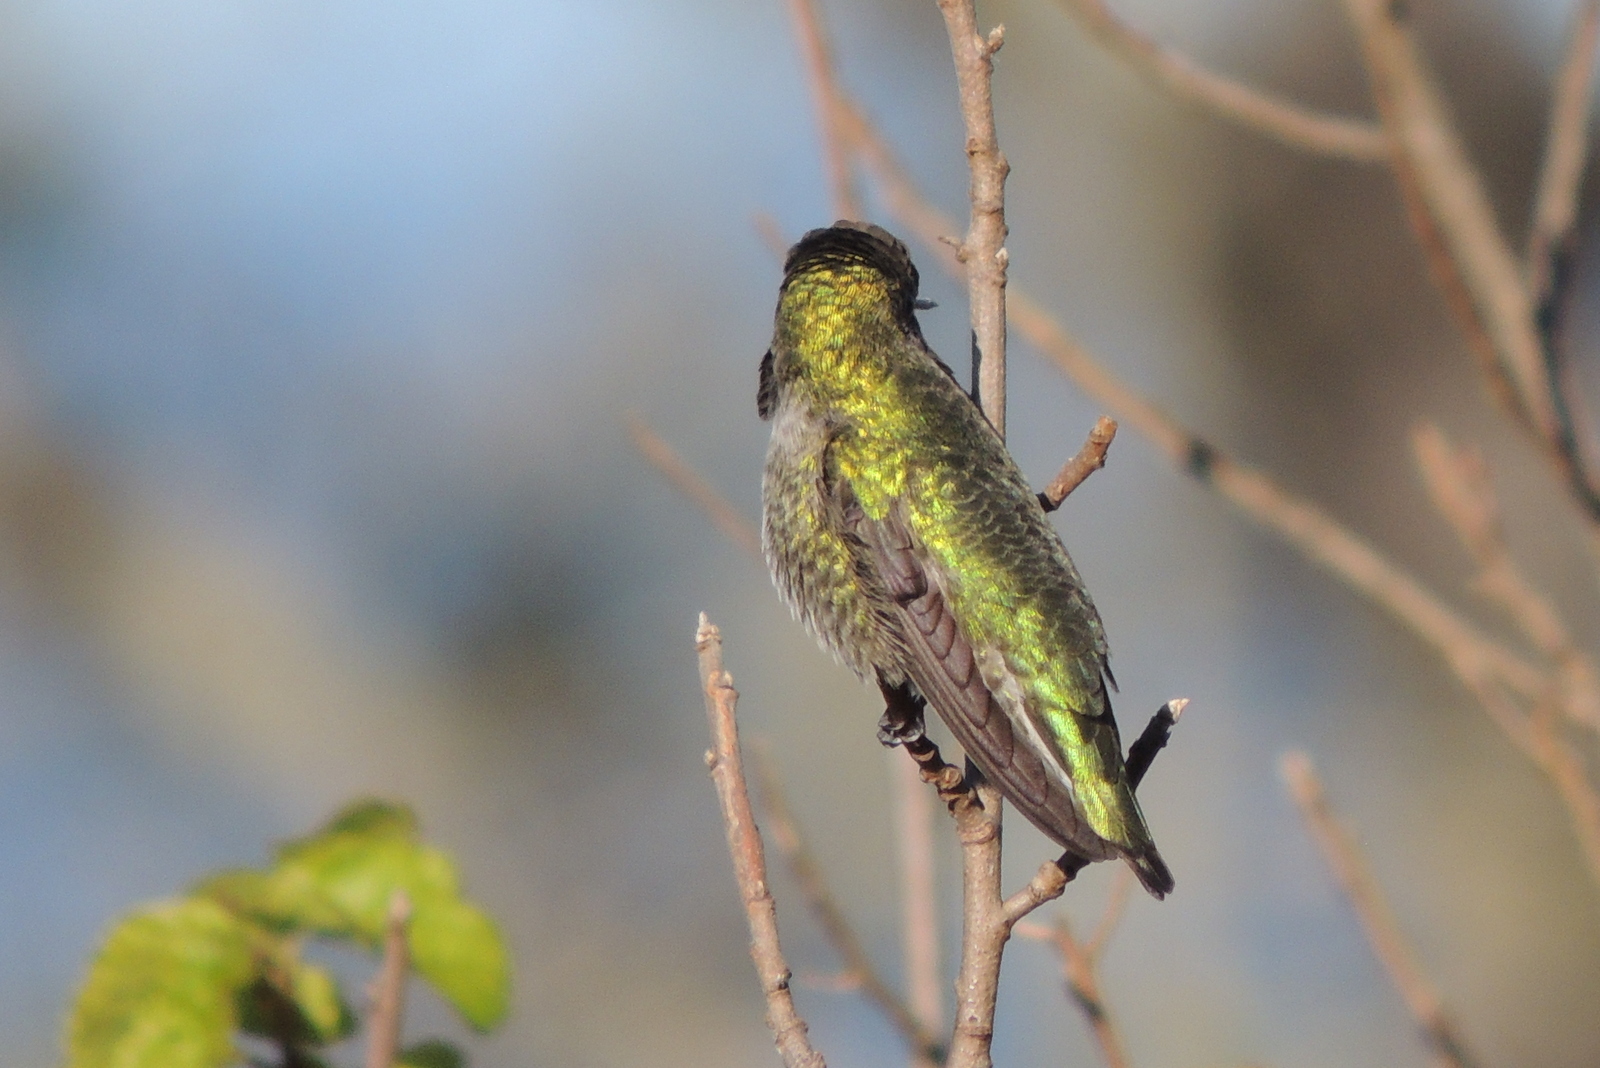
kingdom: Animalia
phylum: Chordata
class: Aves
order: Apodiformes
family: Trochilidae
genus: Calypte
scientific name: Calypte anna
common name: Anna's hummingbird
